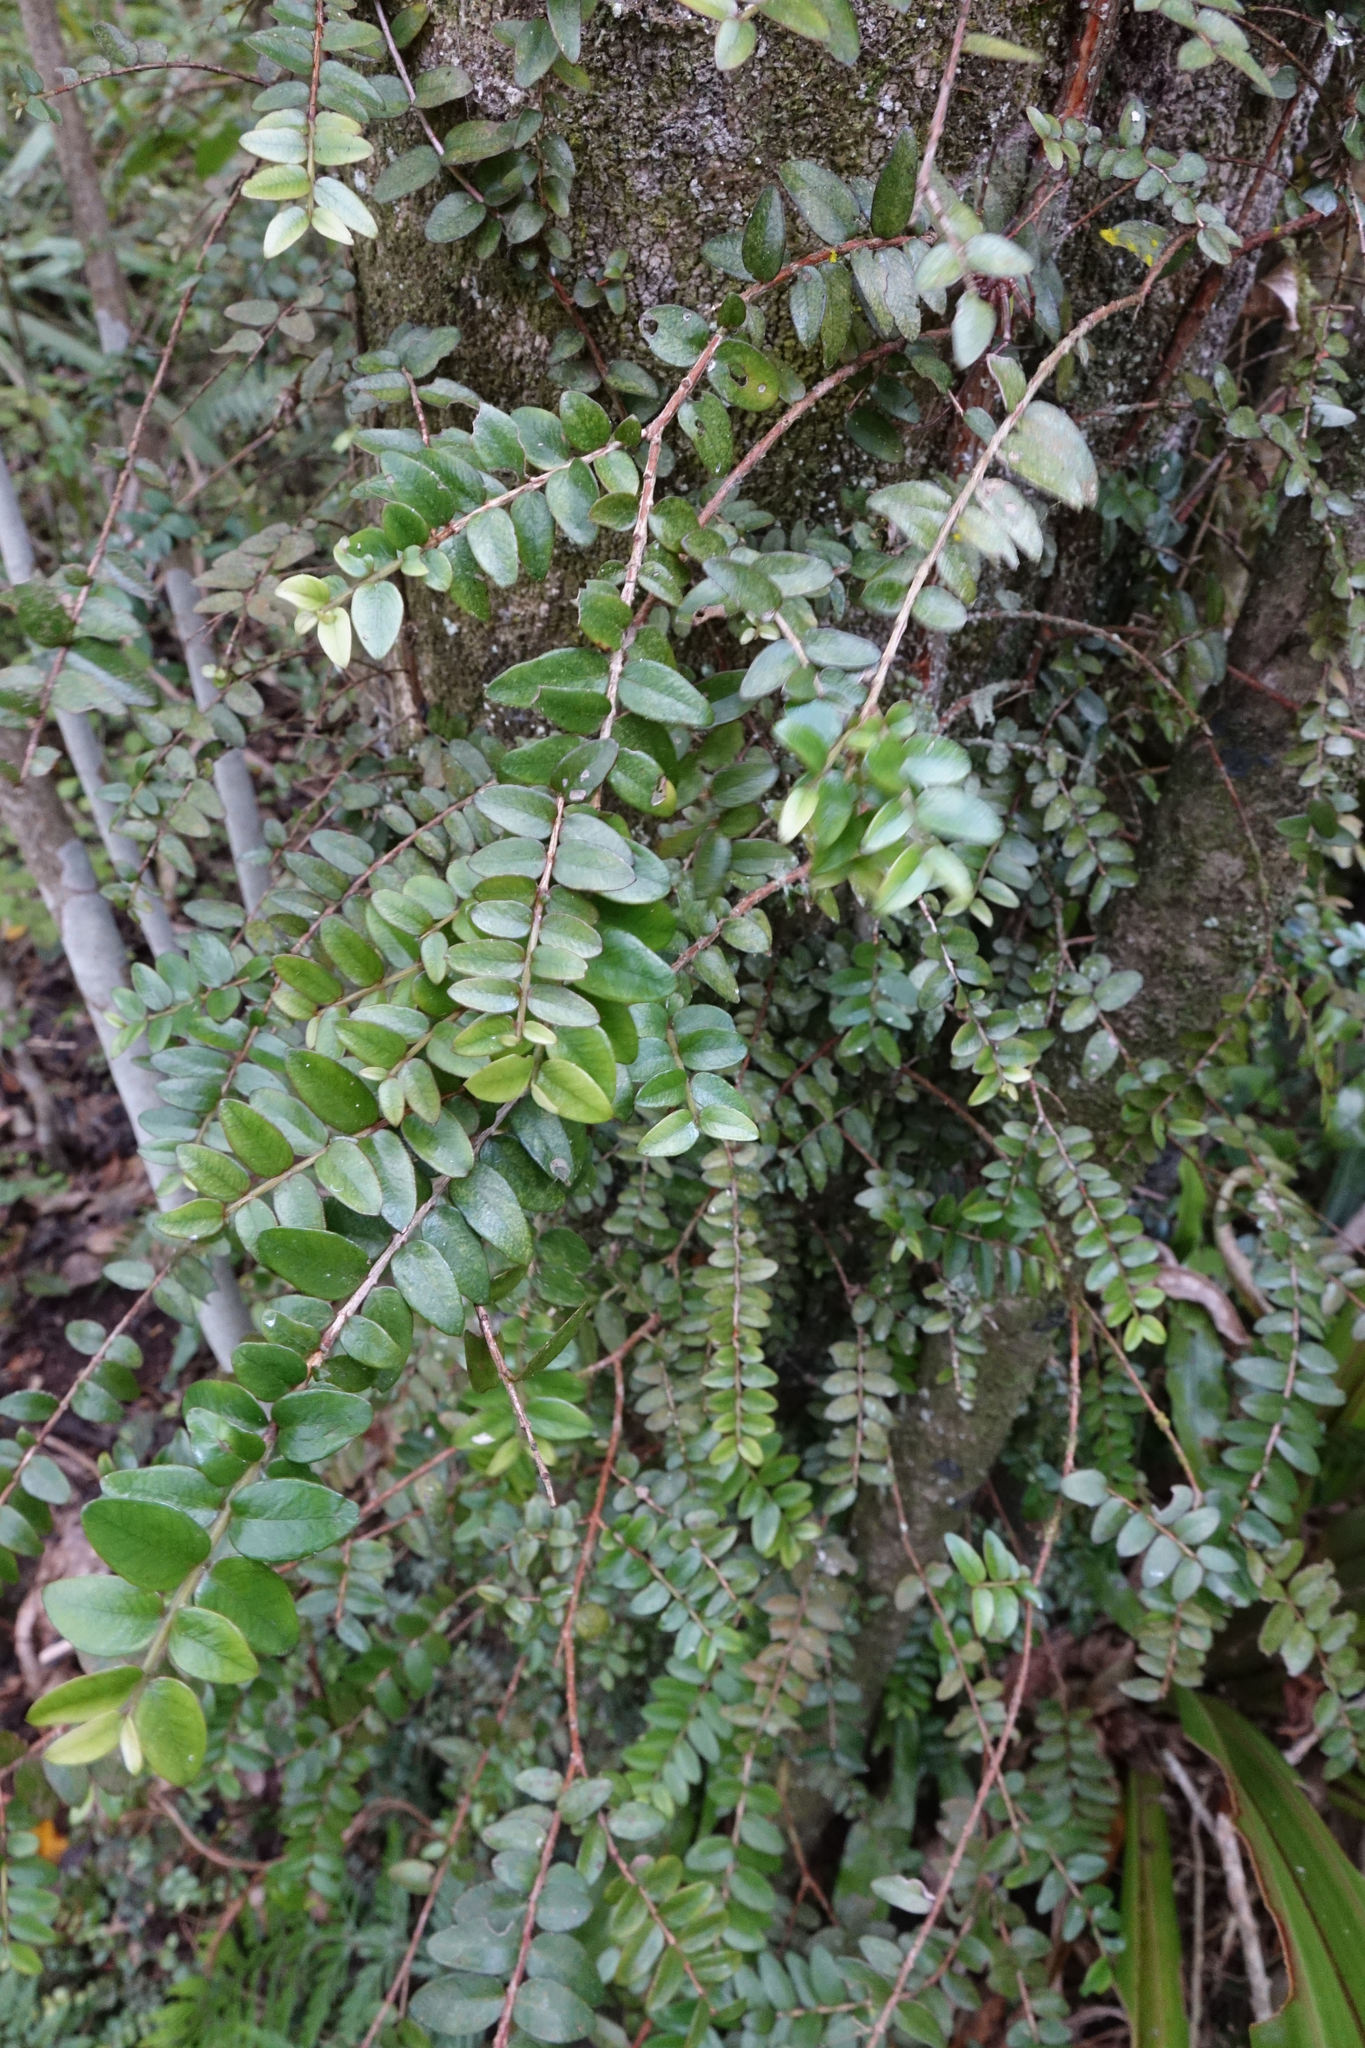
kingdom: Plantae
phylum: Tracheophyta
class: Magnoliopsida
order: Myrtales
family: Myrtaceae
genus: Metrosideros
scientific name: Metrosideros diffusa
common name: Small ratavine
